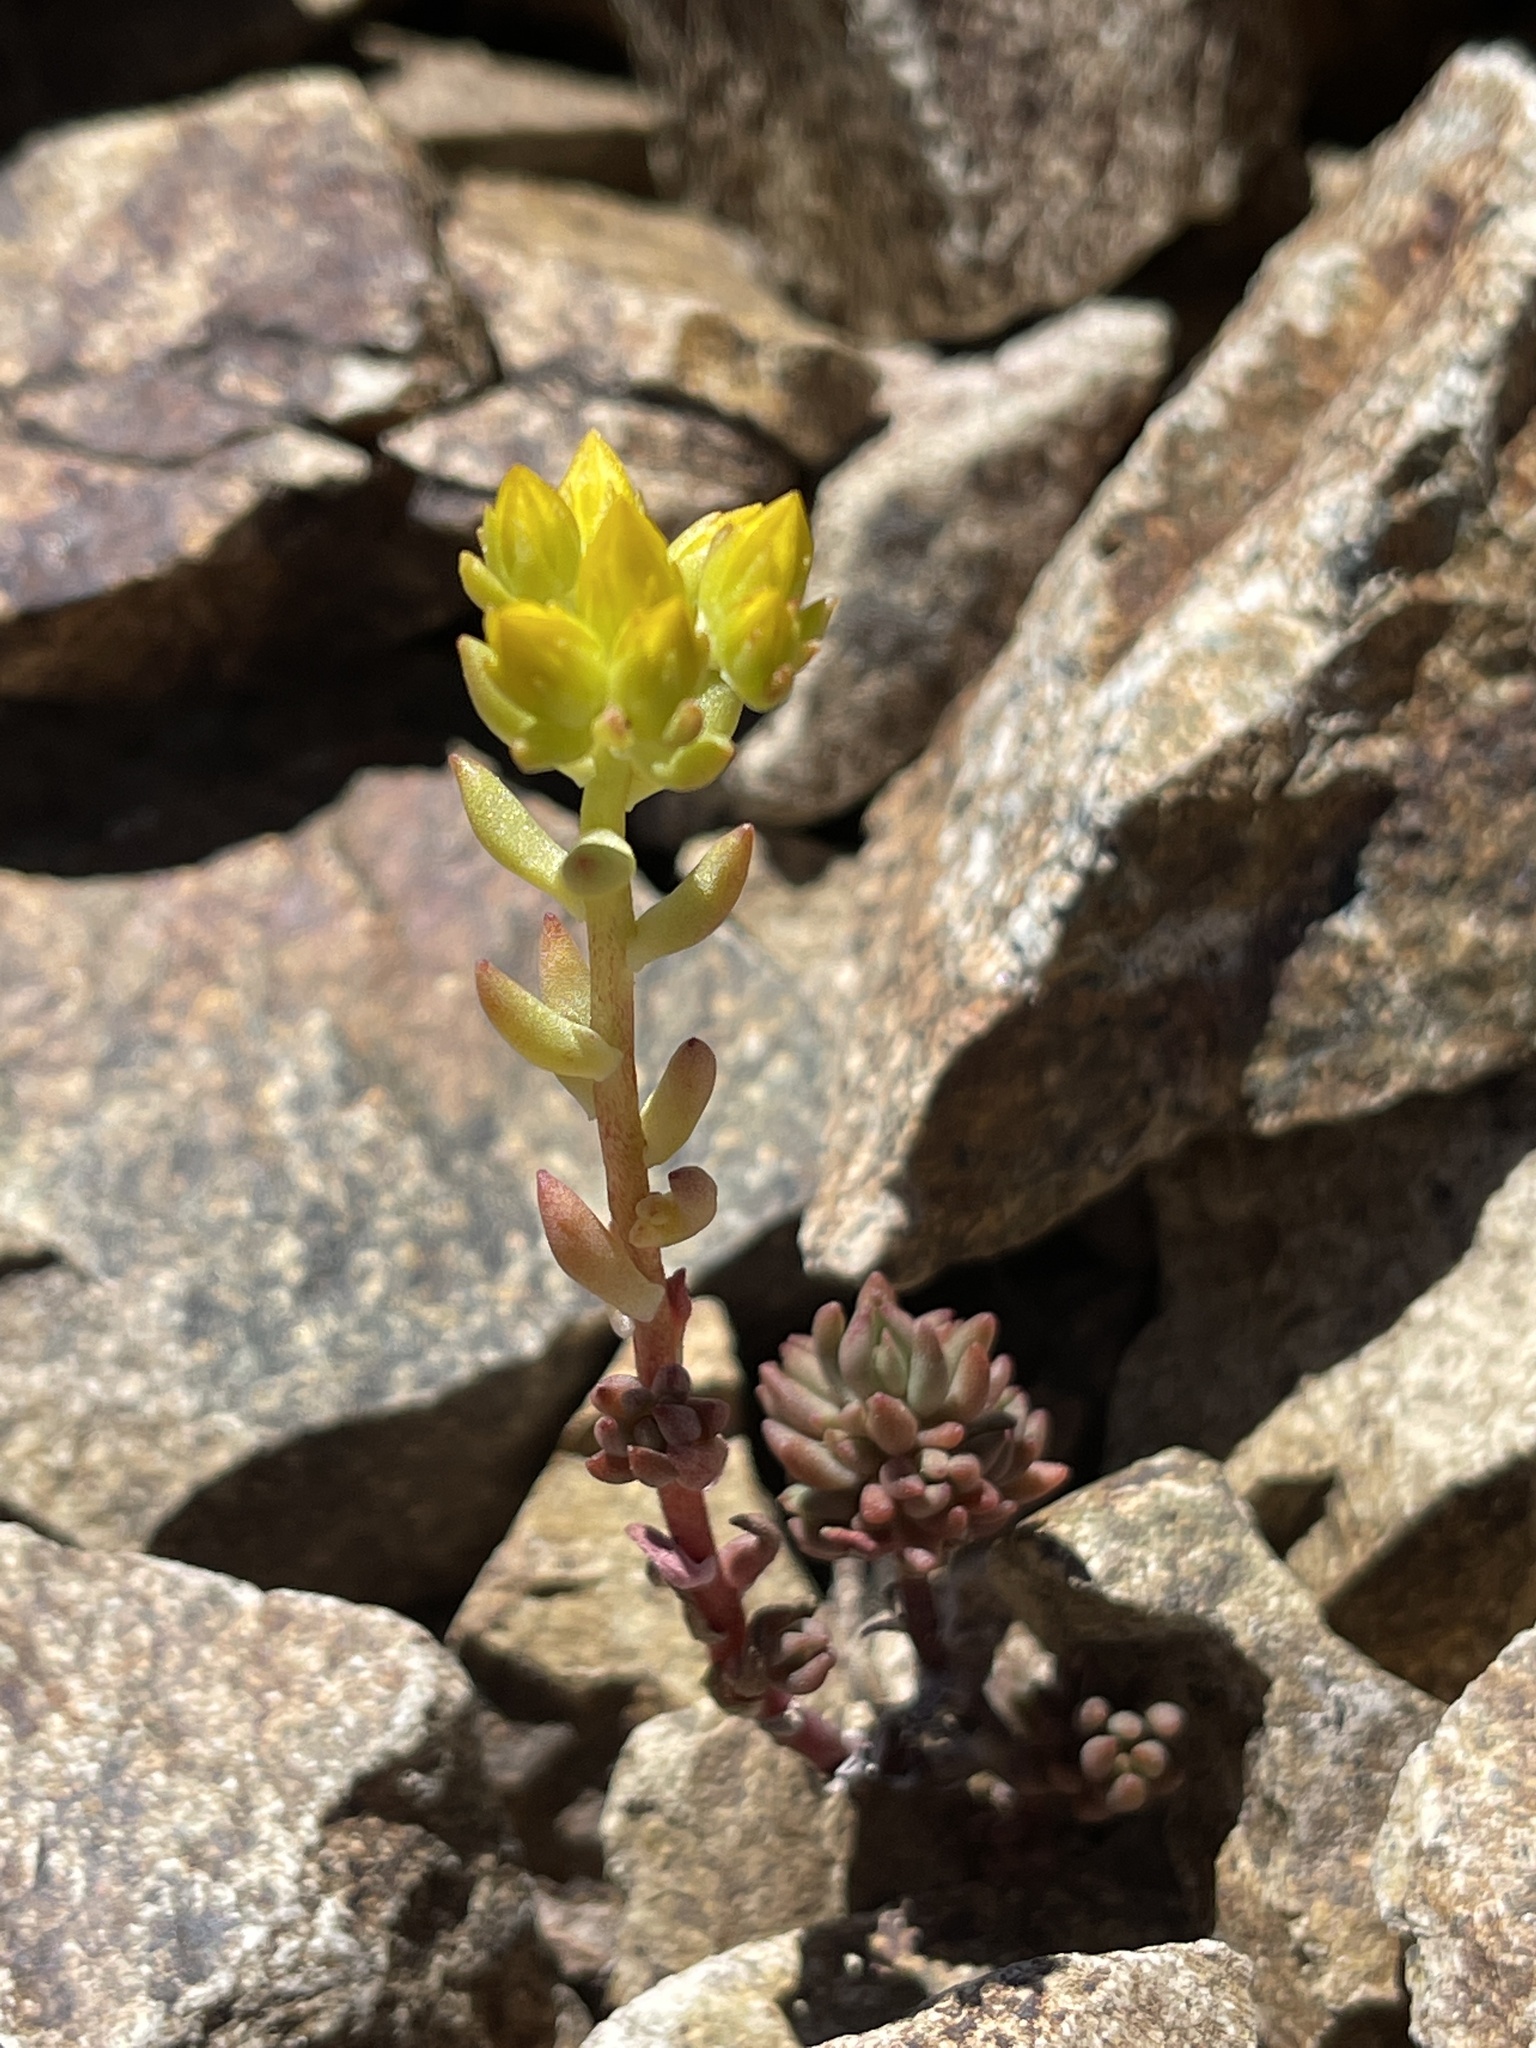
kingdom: Plantae
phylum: Tracheophyta
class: Magnoliopsida
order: Saxifragales
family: Crassulaceae
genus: Sedum
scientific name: Sedum lanceolatum
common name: Common stonecrop
